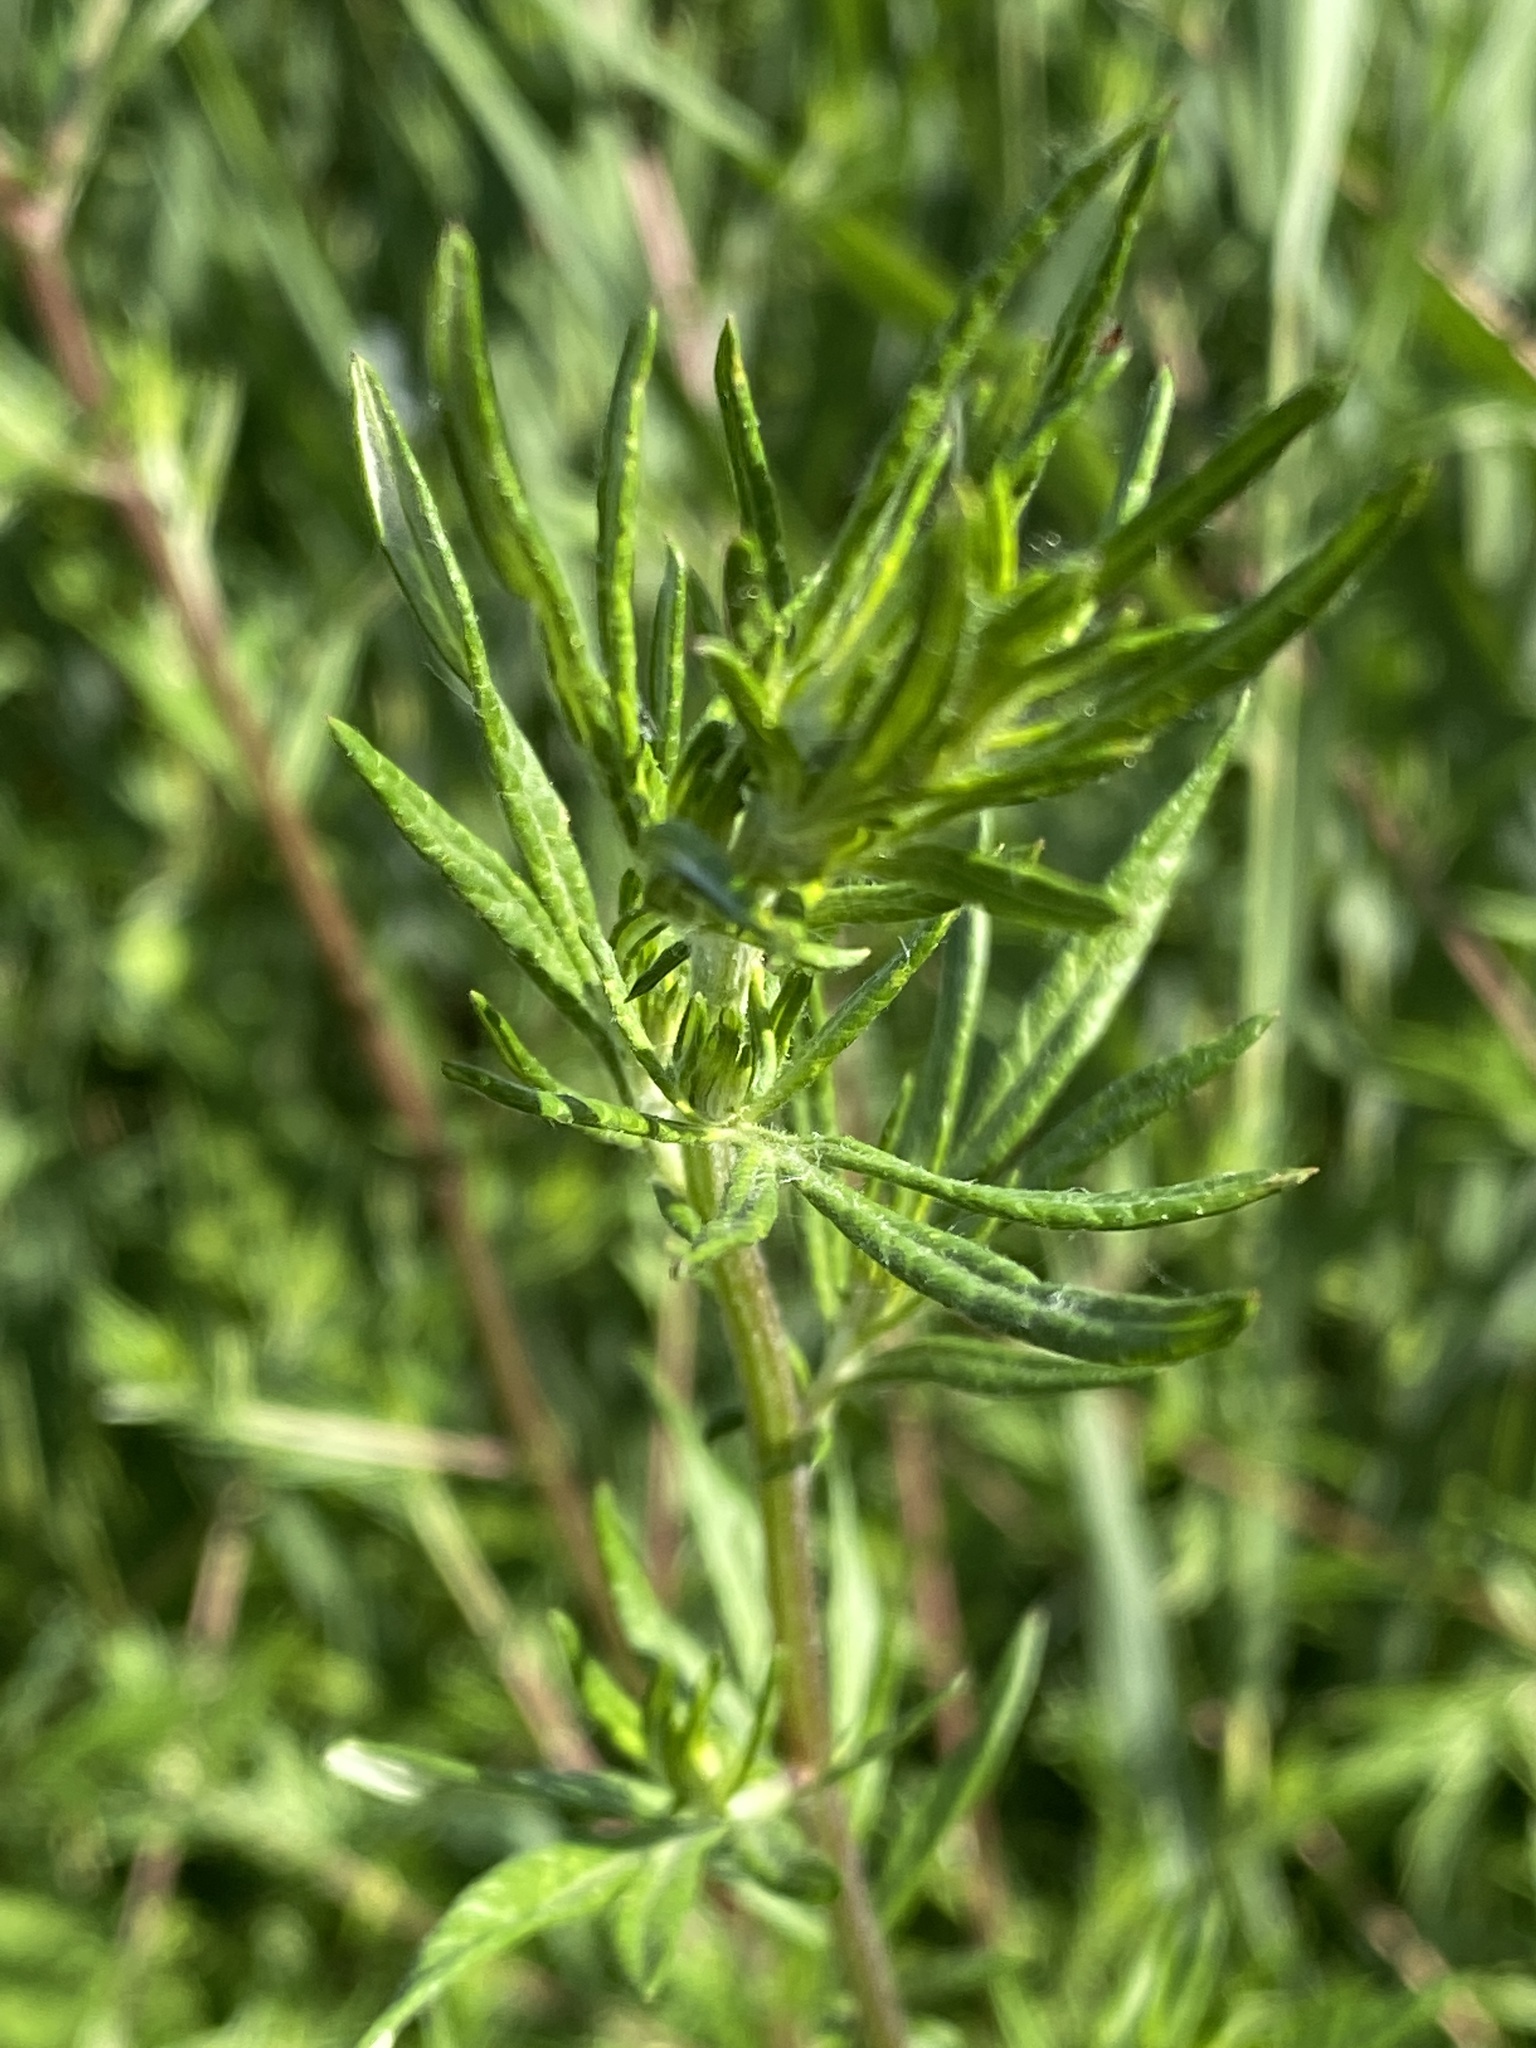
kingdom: Plantae
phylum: Tracheophyta
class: Magnoliopsida
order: Asterales
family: Asteraceae
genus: Artemisia
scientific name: Artemisia vulgaris
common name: Mugwort
